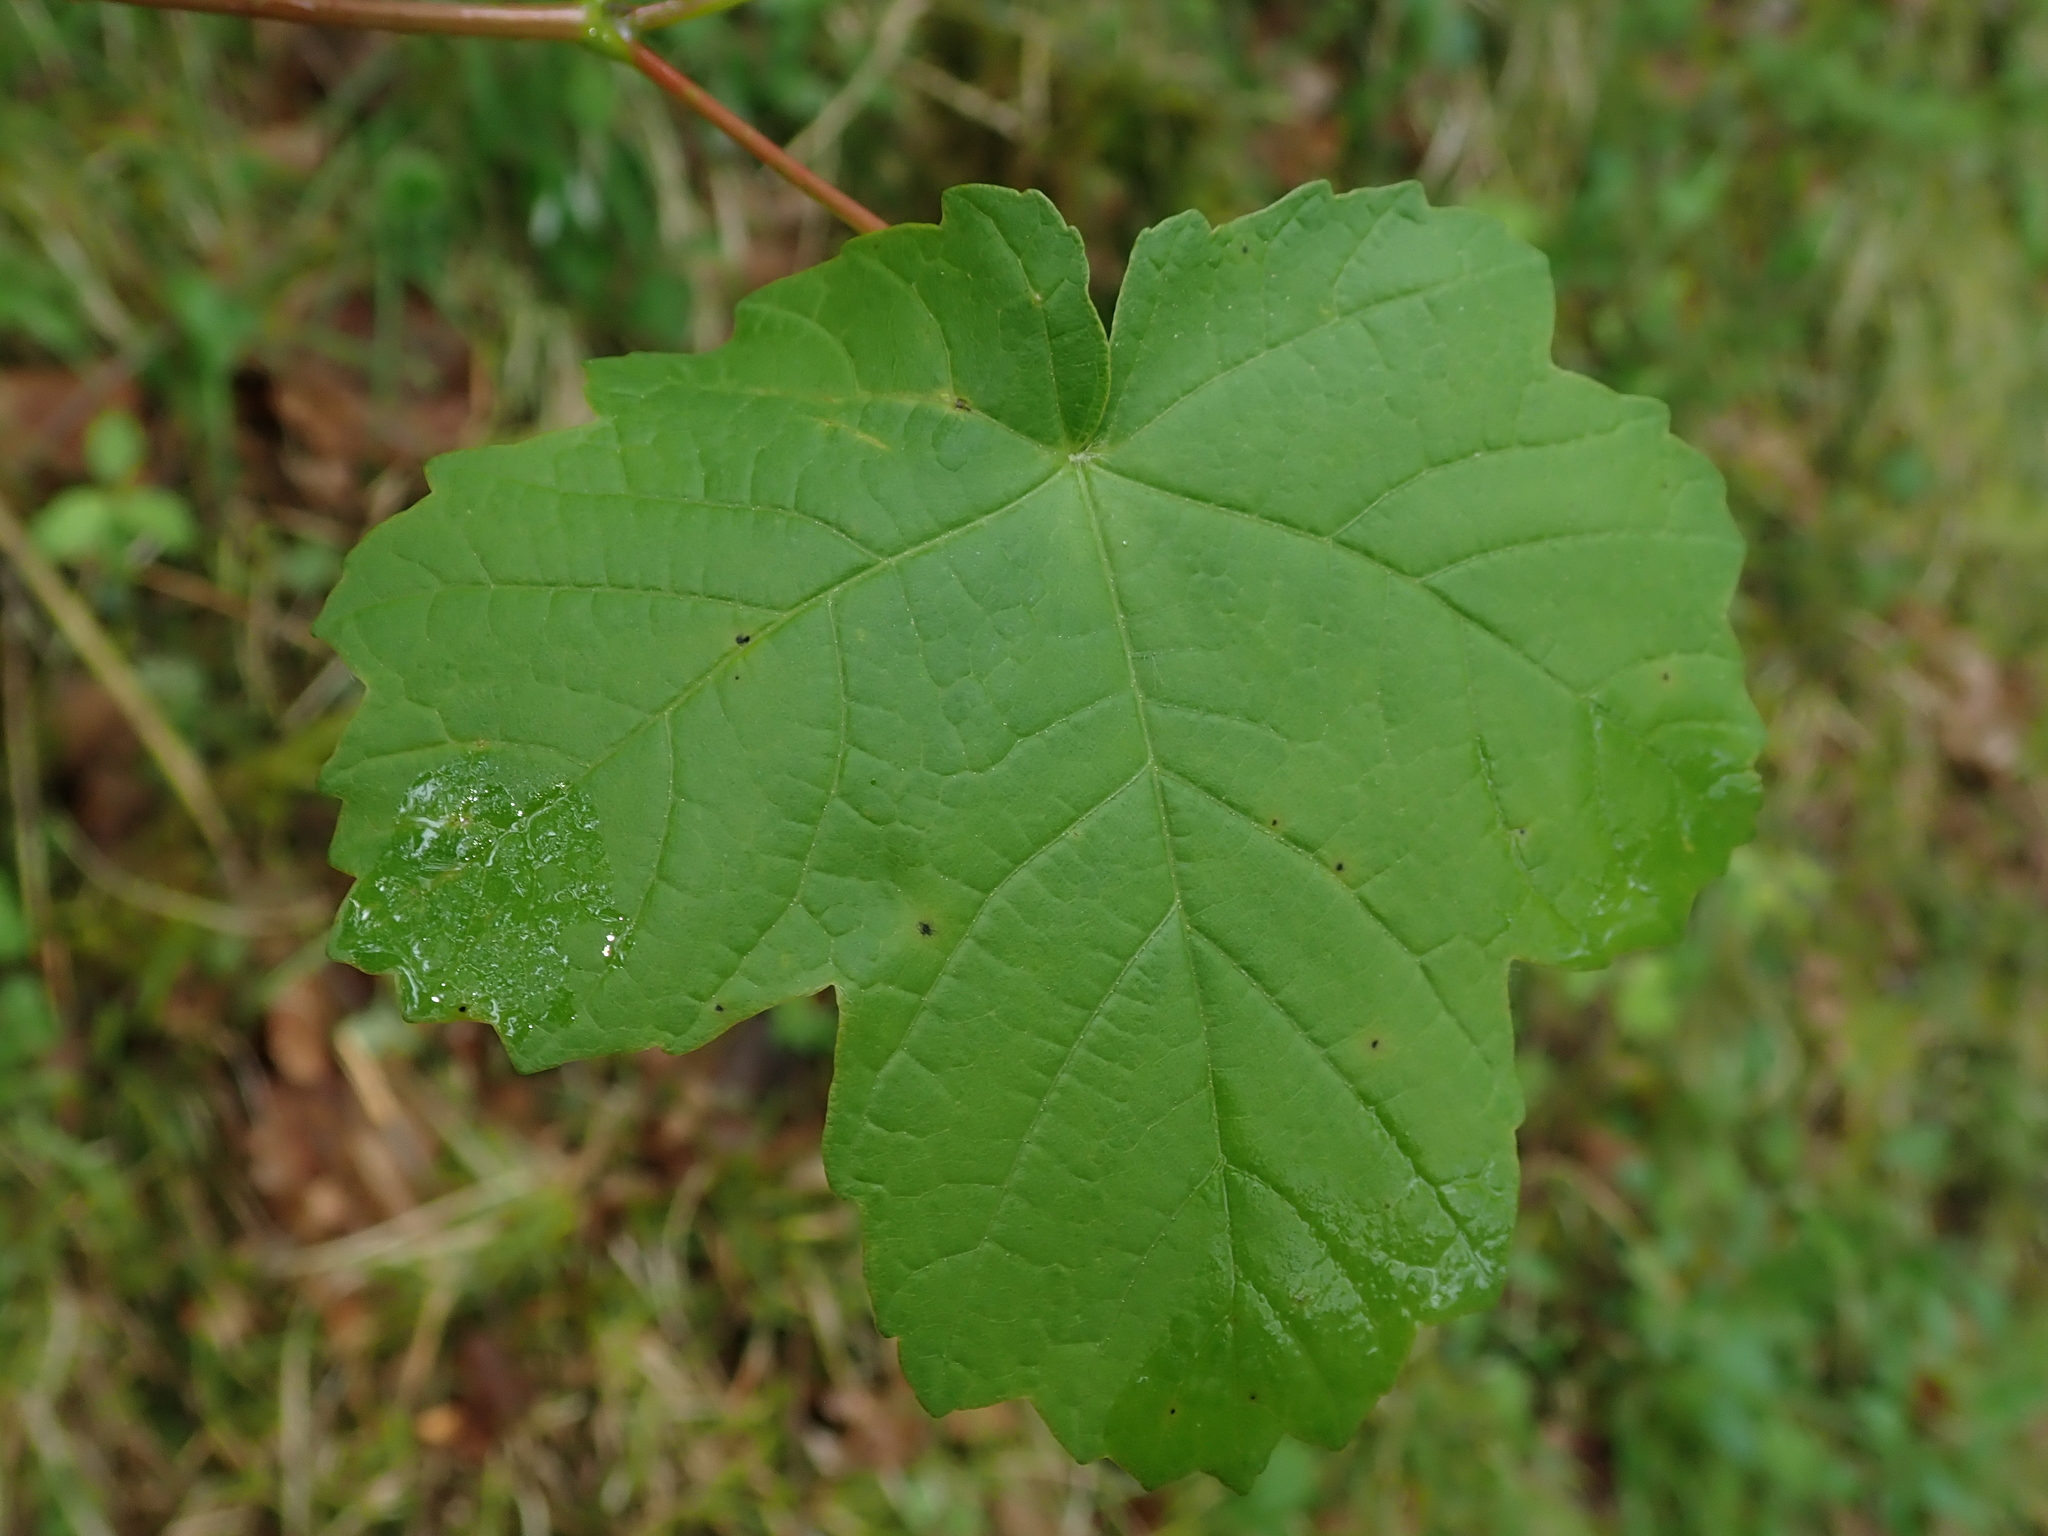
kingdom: Plantae
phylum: Tracheophyta
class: Magnoliopsida
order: Sapindales
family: Sapindaceae
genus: Acer
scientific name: Acer opalus
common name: Italian maple
